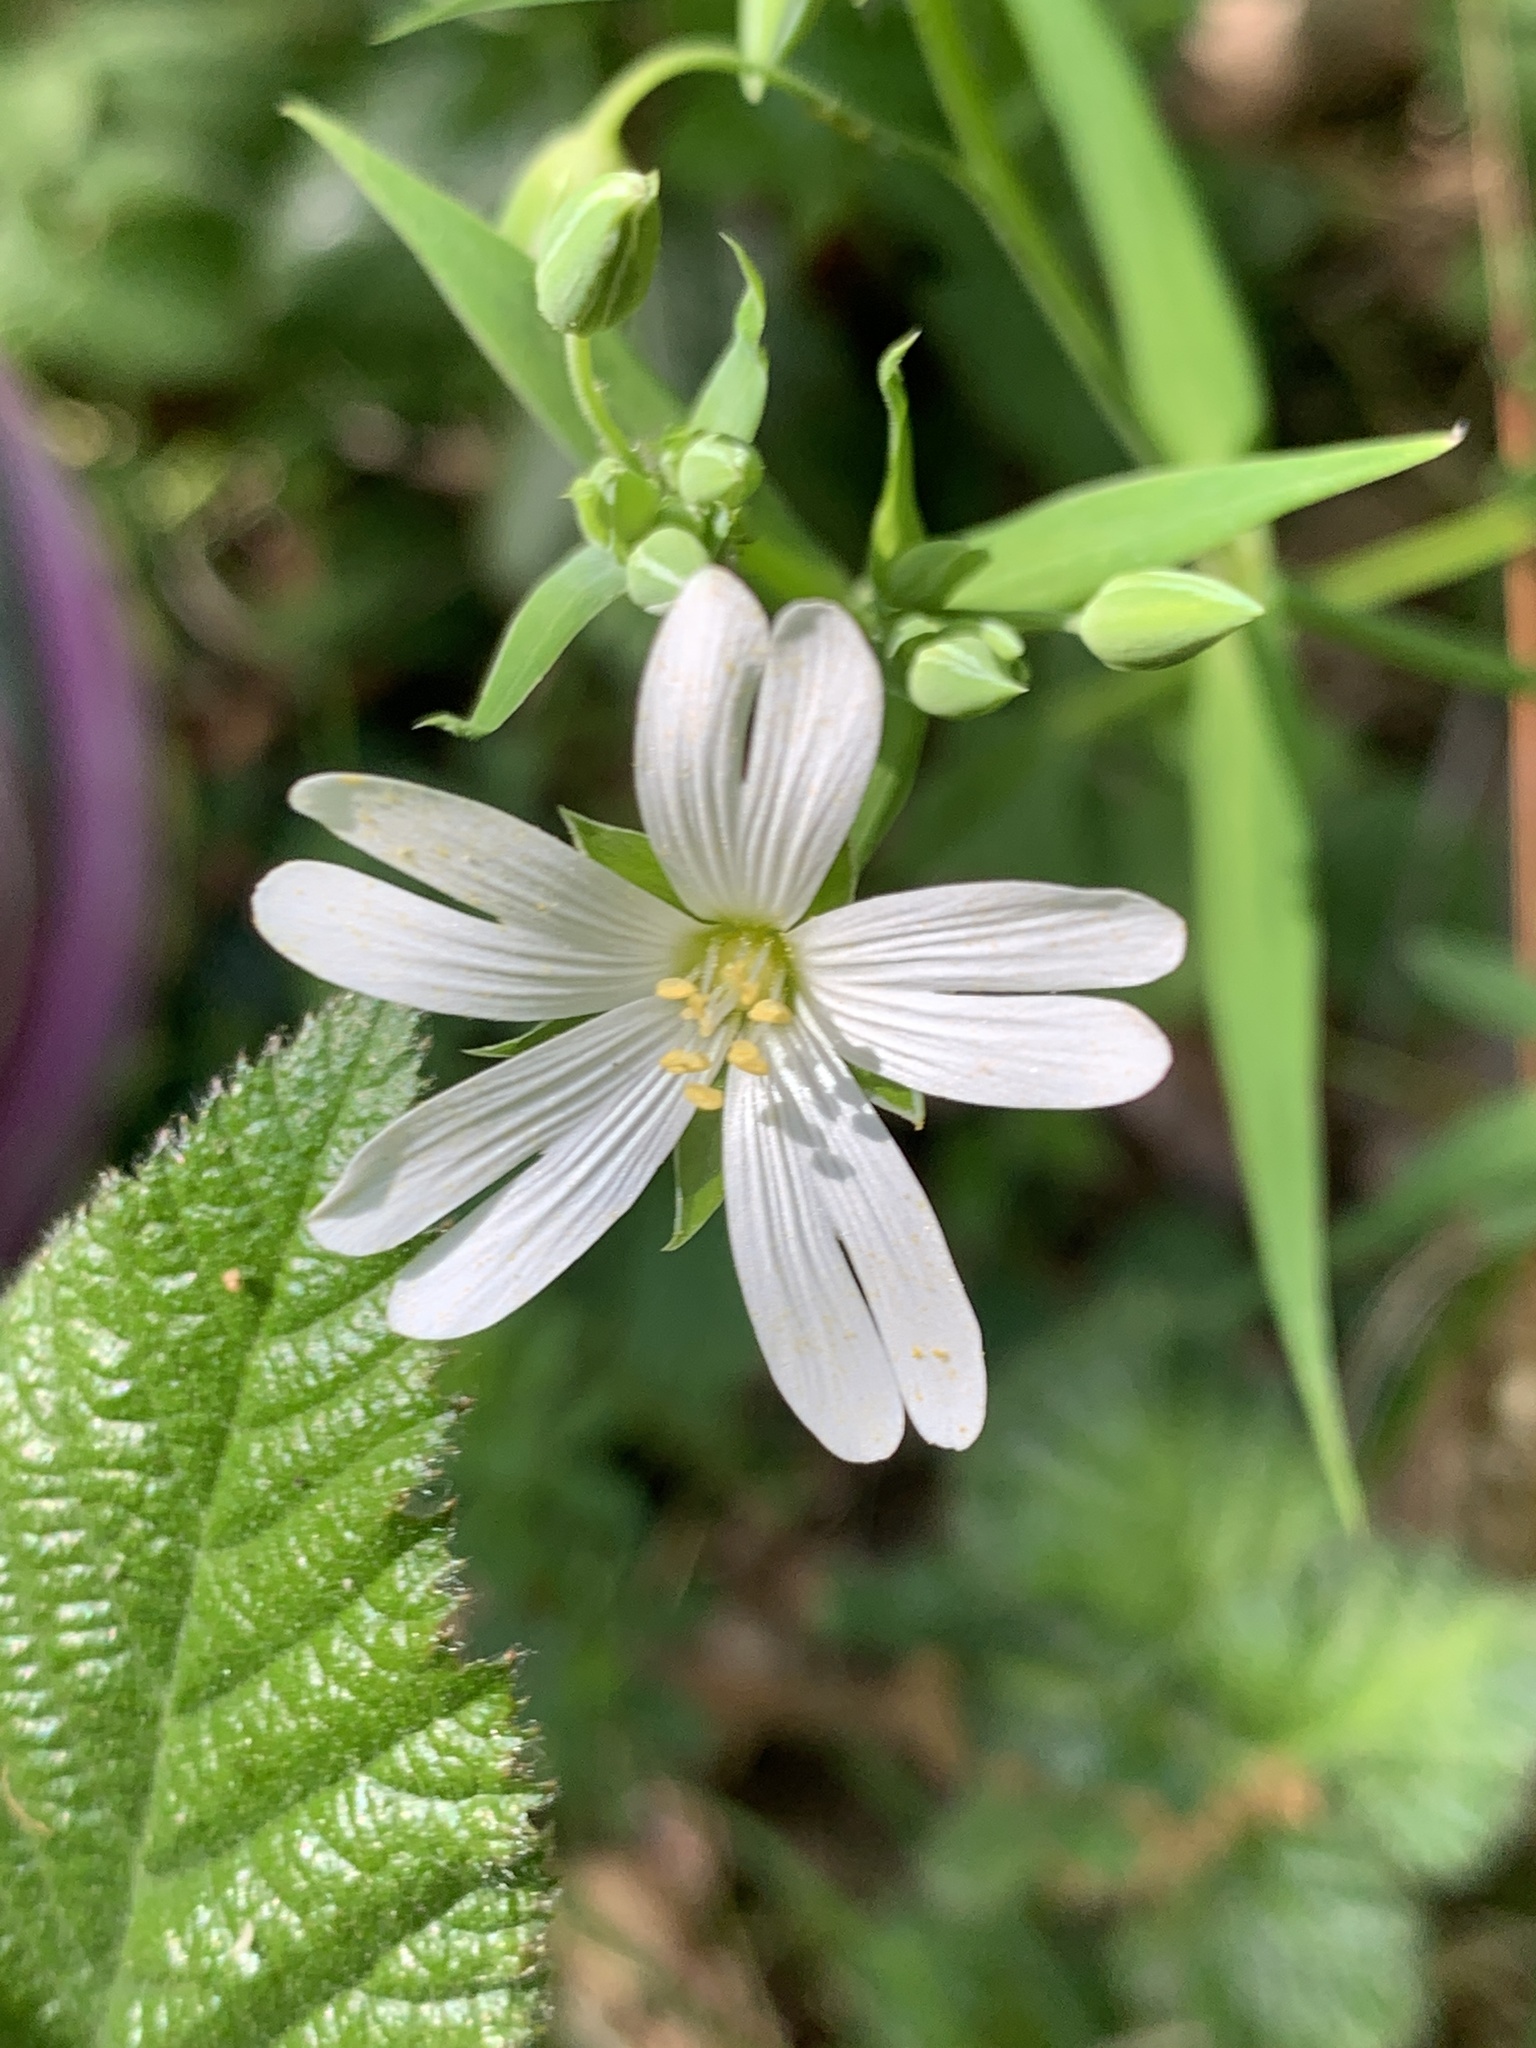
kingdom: Plantae
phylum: Tracheophyta
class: Magnoliopsida
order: Caryophyllales
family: Caryophyllaceae
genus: Rabelera
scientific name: Rabelera holostea
